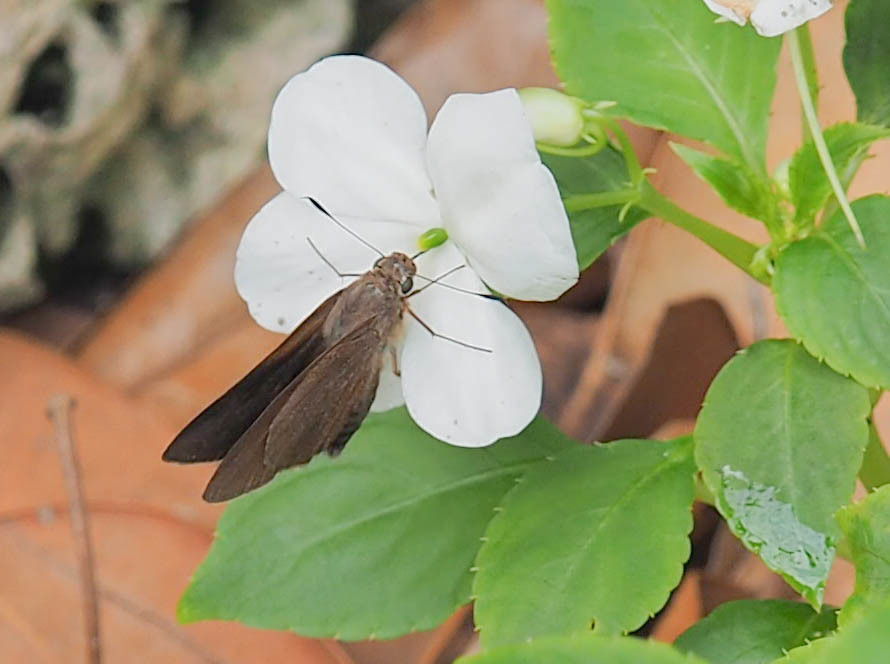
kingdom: Animalia
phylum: Arthropoda
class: Insecta
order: Lepidoptera
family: Hesperiidae
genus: Asbolis
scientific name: Asbolis capucinus
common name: Monk skipper
